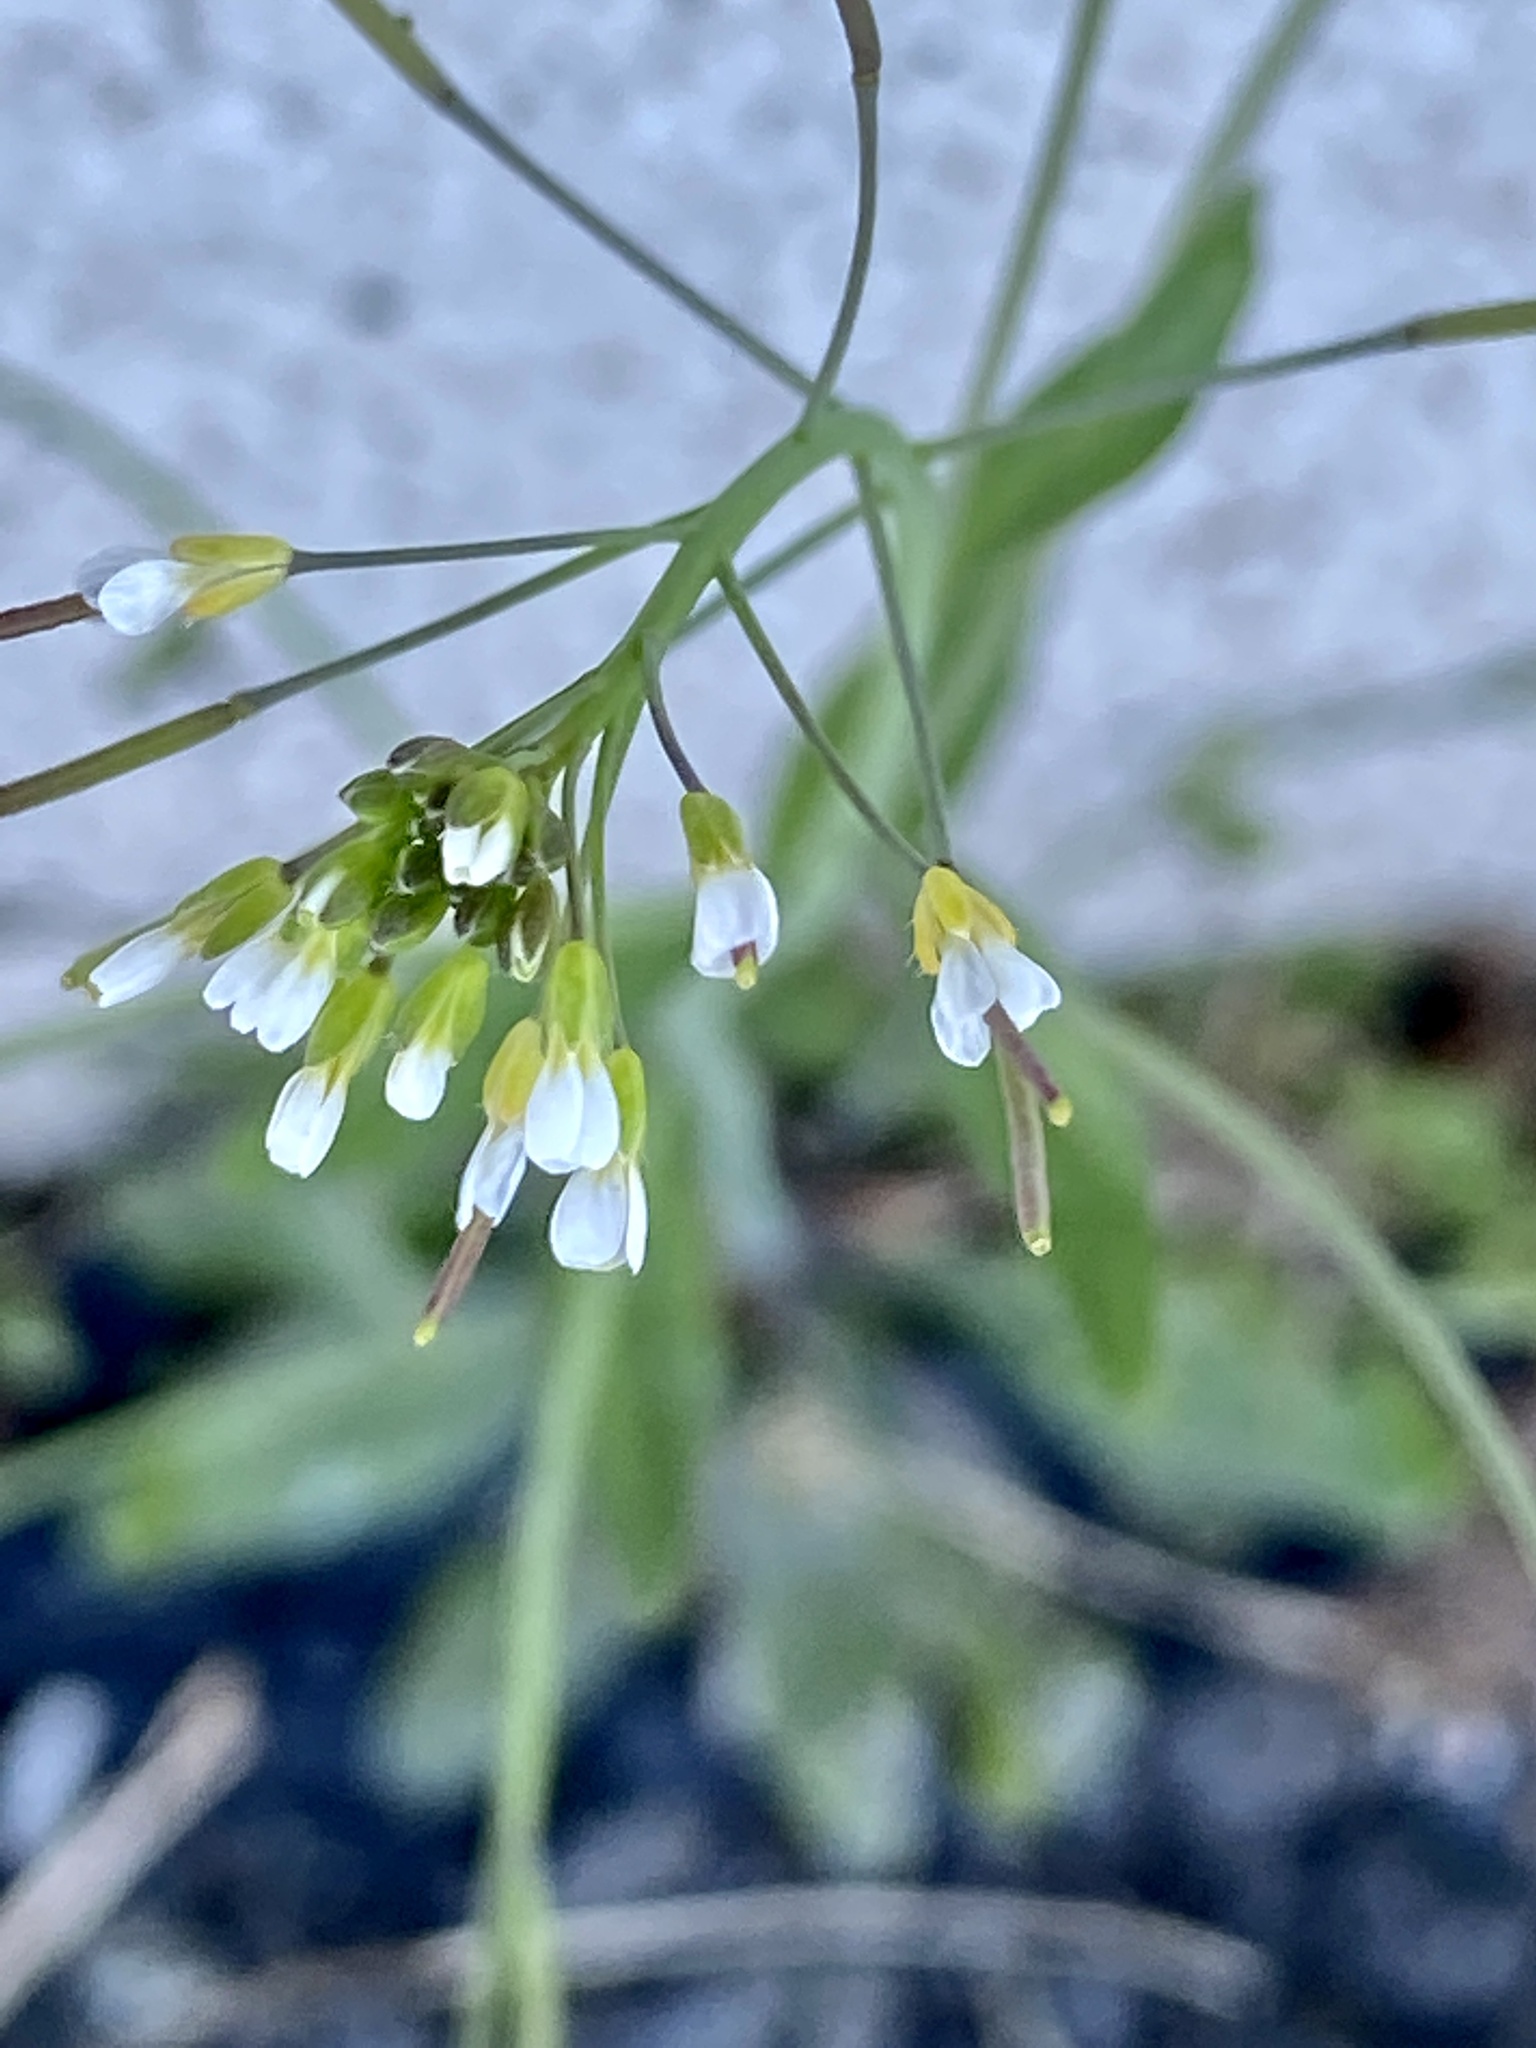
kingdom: Plantae
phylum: Tracheophyta
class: Magnoliopsida
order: Brassicales
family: Brassicaceae
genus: Arabidopsis
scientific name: Arabidopsis thaliana
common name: Thale cress
